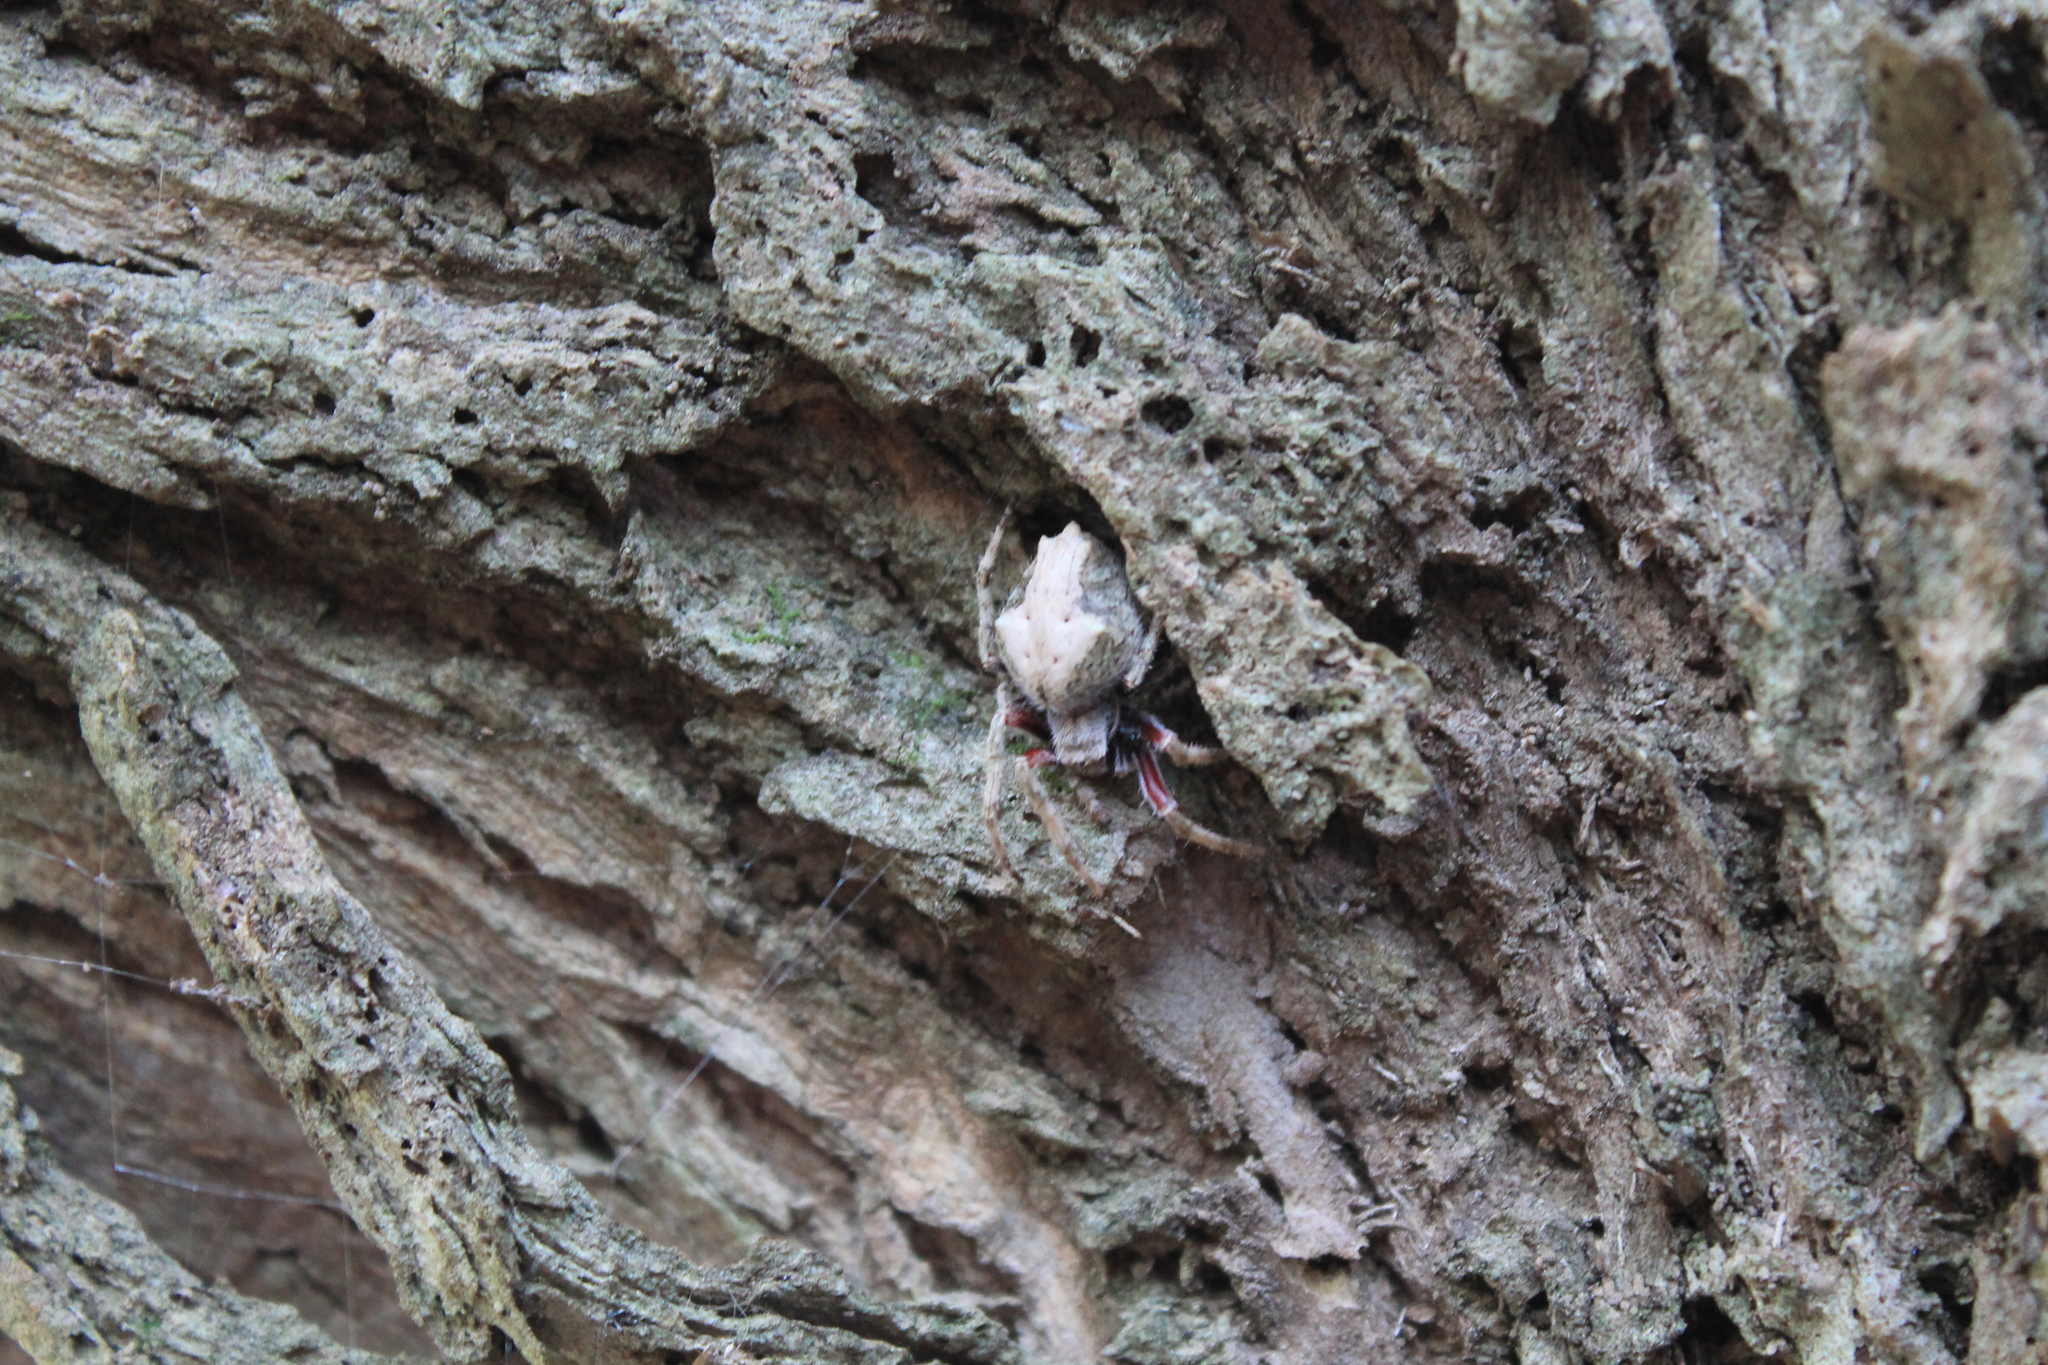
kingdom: Animalia
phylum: Arthropoda
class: Arachnida
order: Araneae
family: Araneidae
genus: Eriophora
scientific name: Eriophora pustulosa
